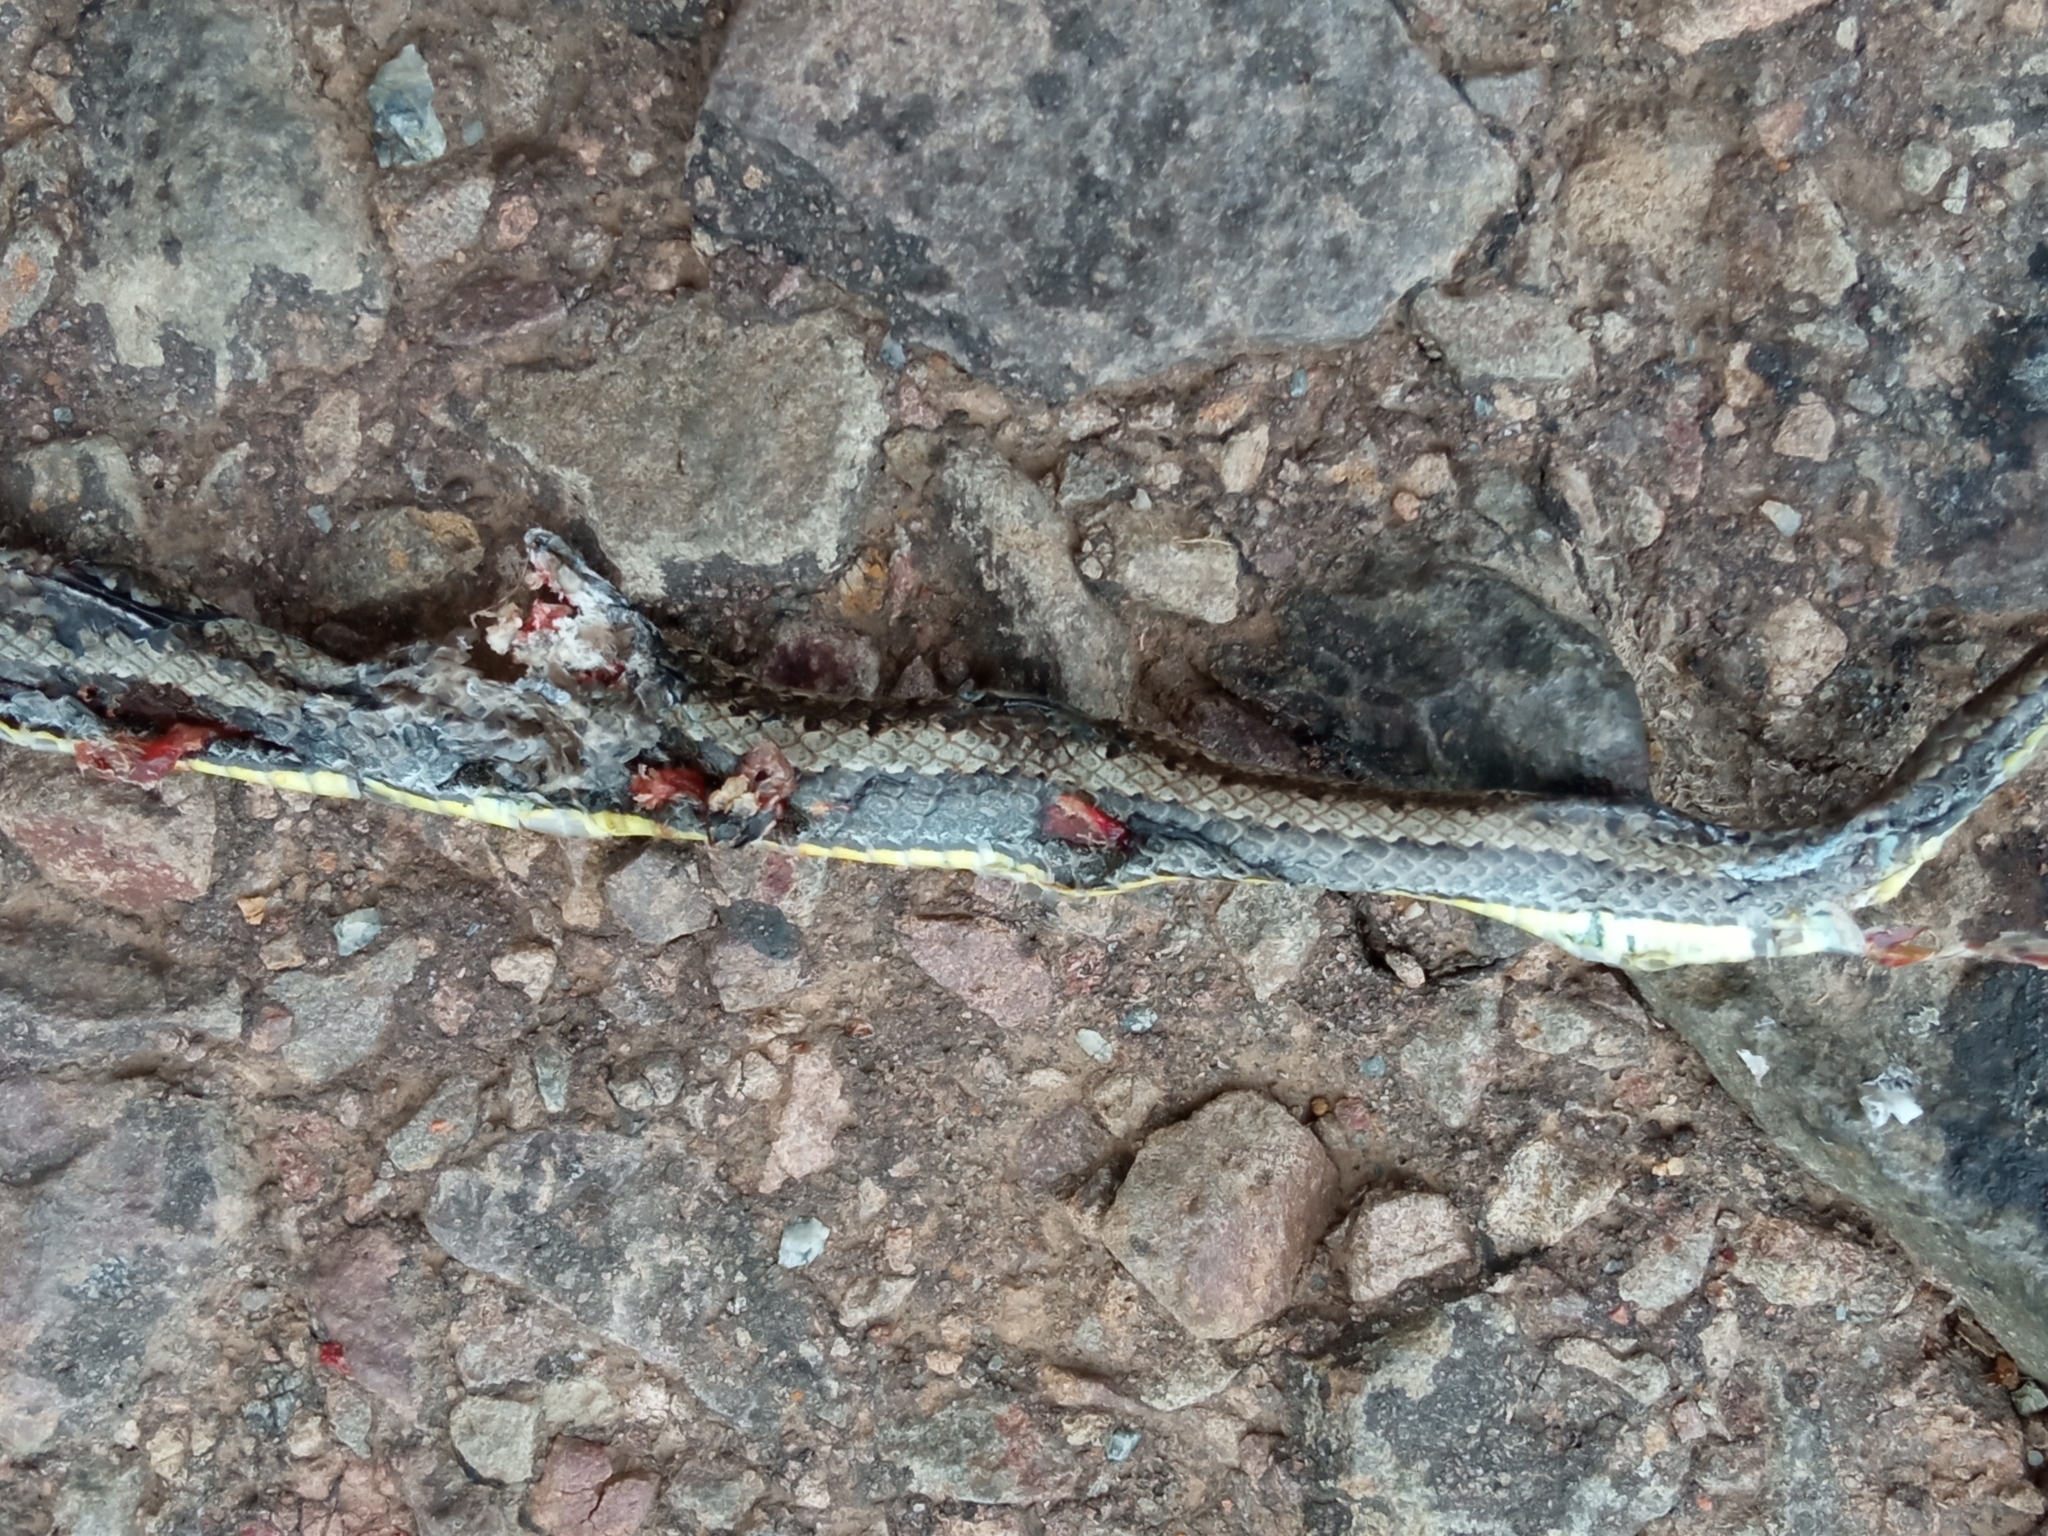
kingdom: Animalia
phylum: Chordata
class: Squamata
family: Colubridae
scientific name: Colubridae
